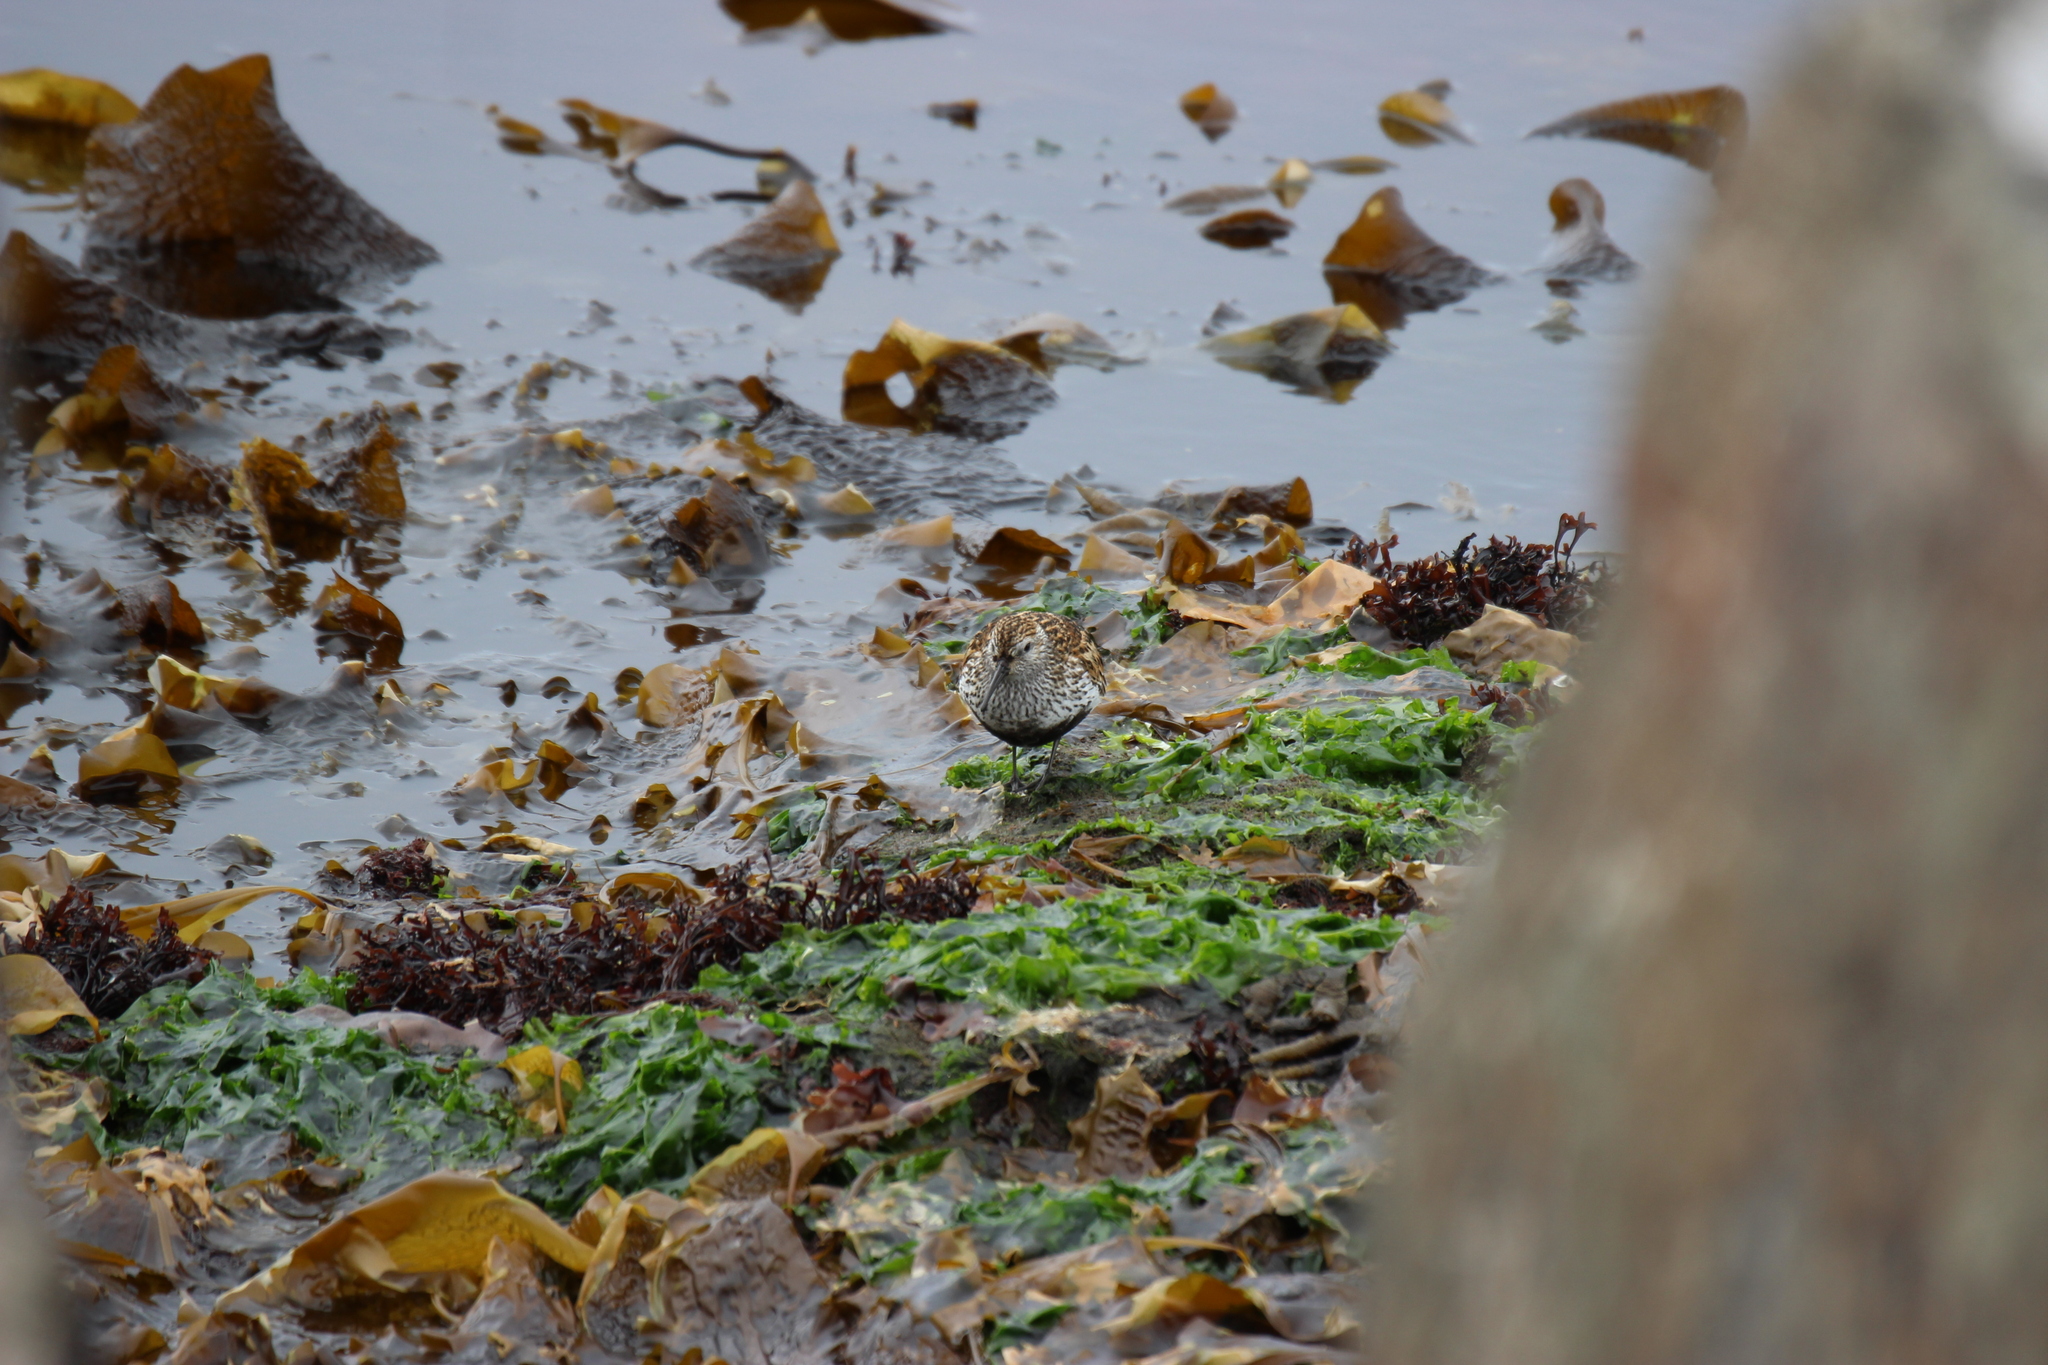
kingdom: Animalia
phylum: Chordata
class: Aves
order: Charadriiformes
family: Scolopacidae
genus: Calidris
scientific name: Calidris alpina
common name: Dunlin
